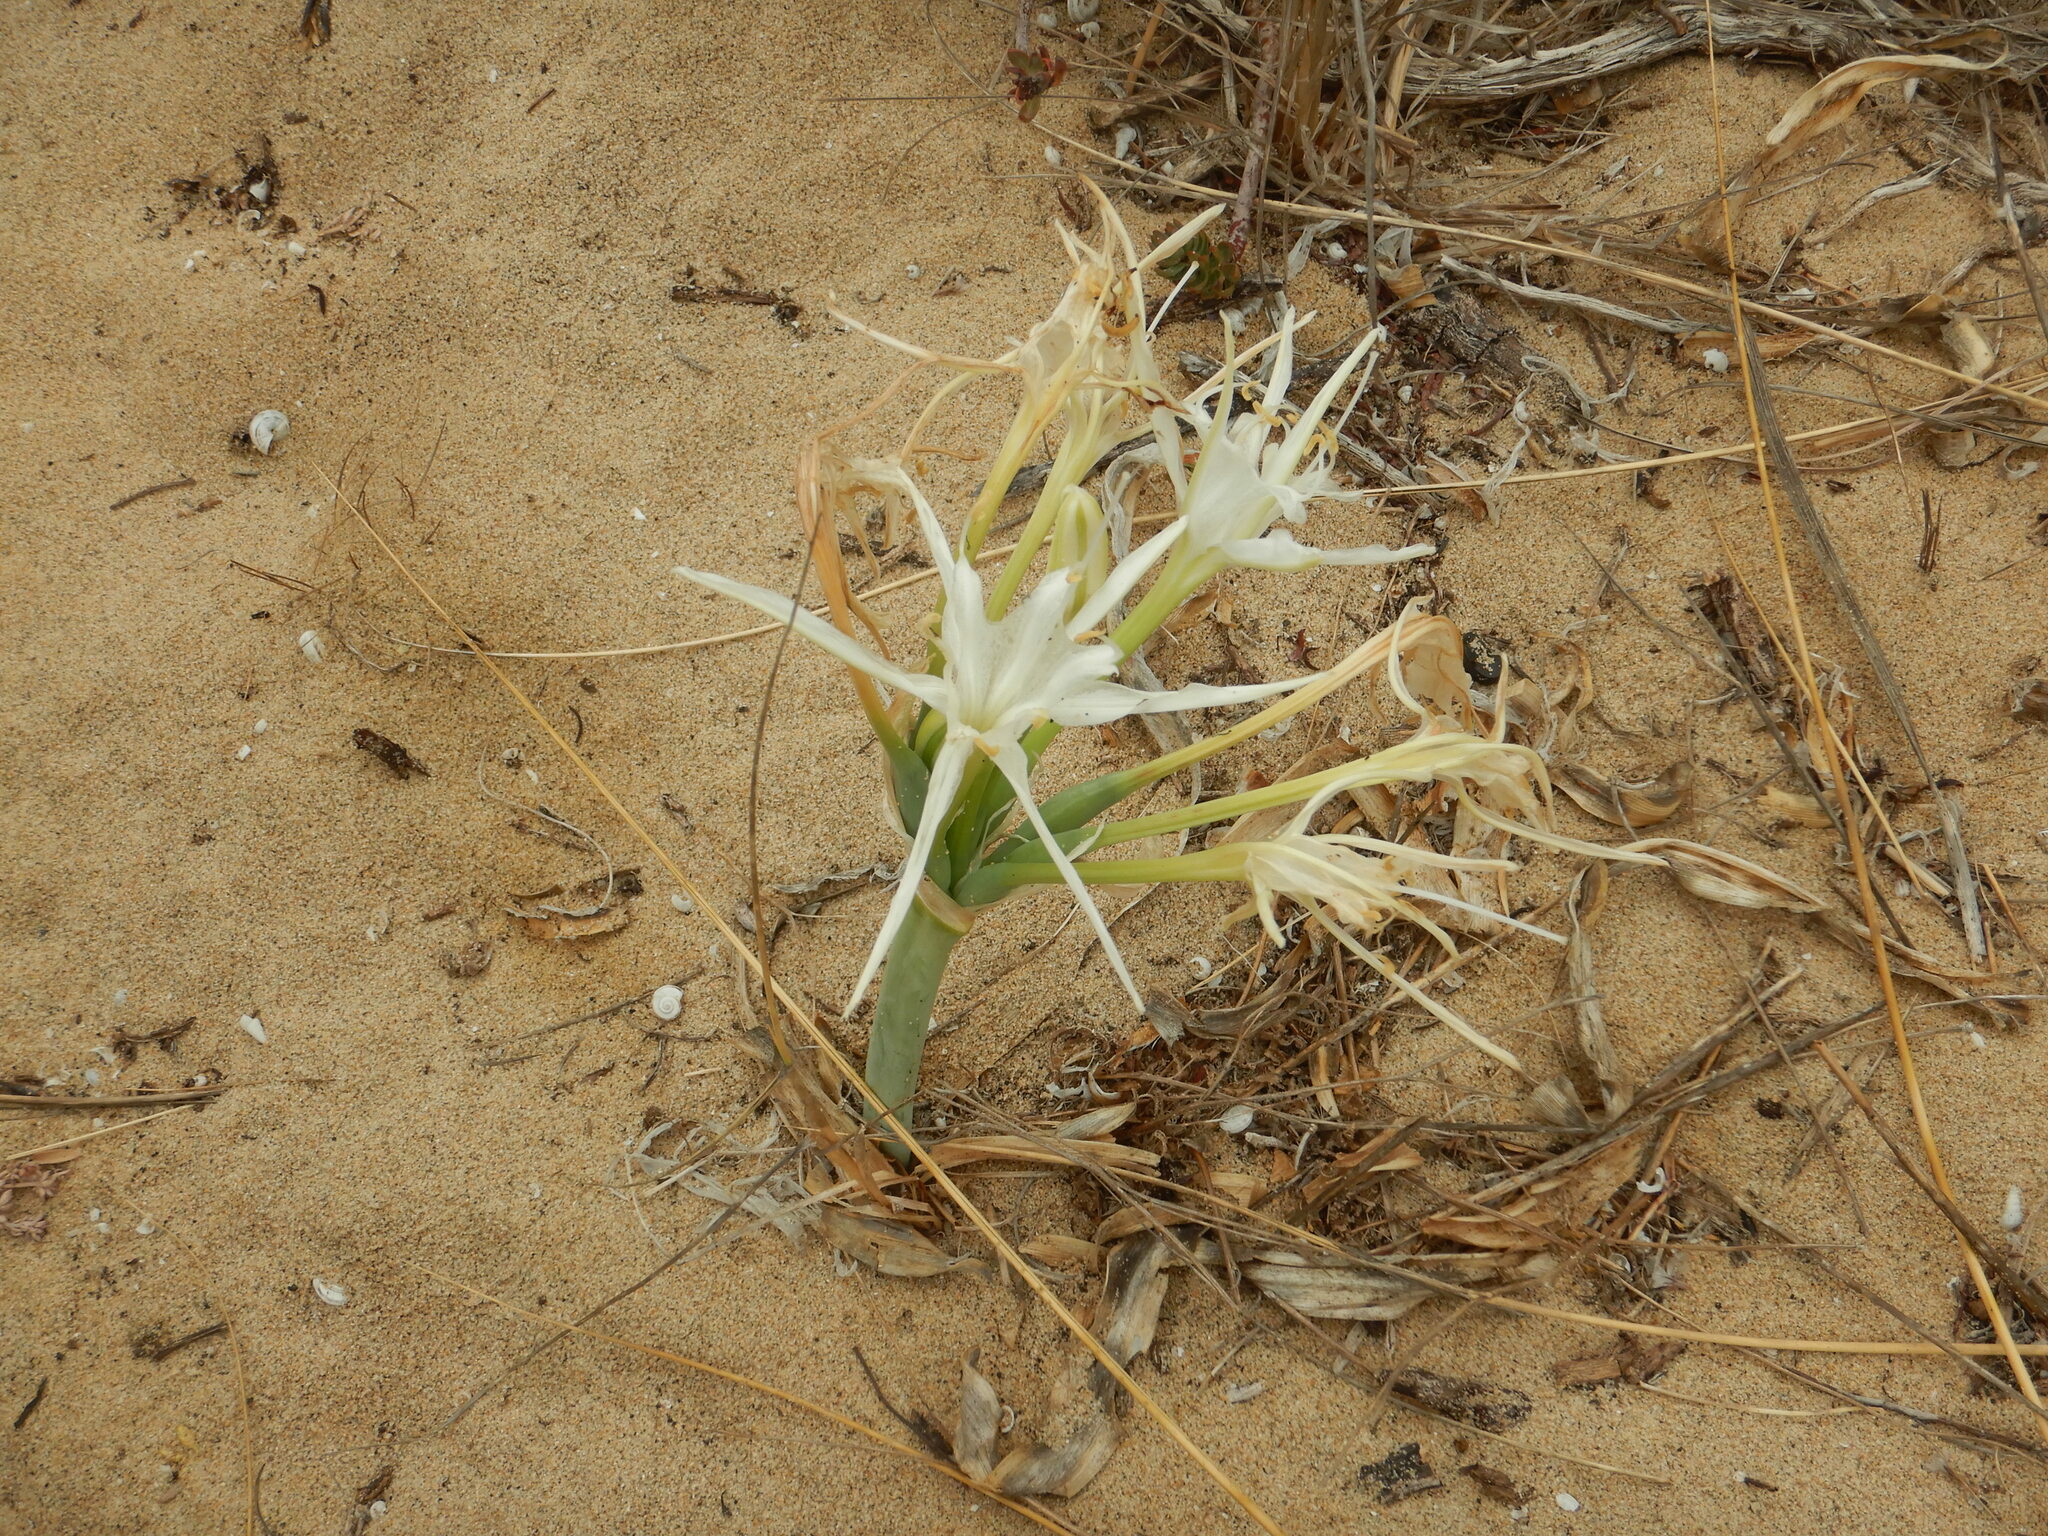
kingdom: Plantae
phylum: Tracheophyta
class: Liliopsida
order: Asparagales
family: Amaryllidaceae
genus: Pancratium
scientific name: Pancratium maritimum
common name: Sea-daffodil
